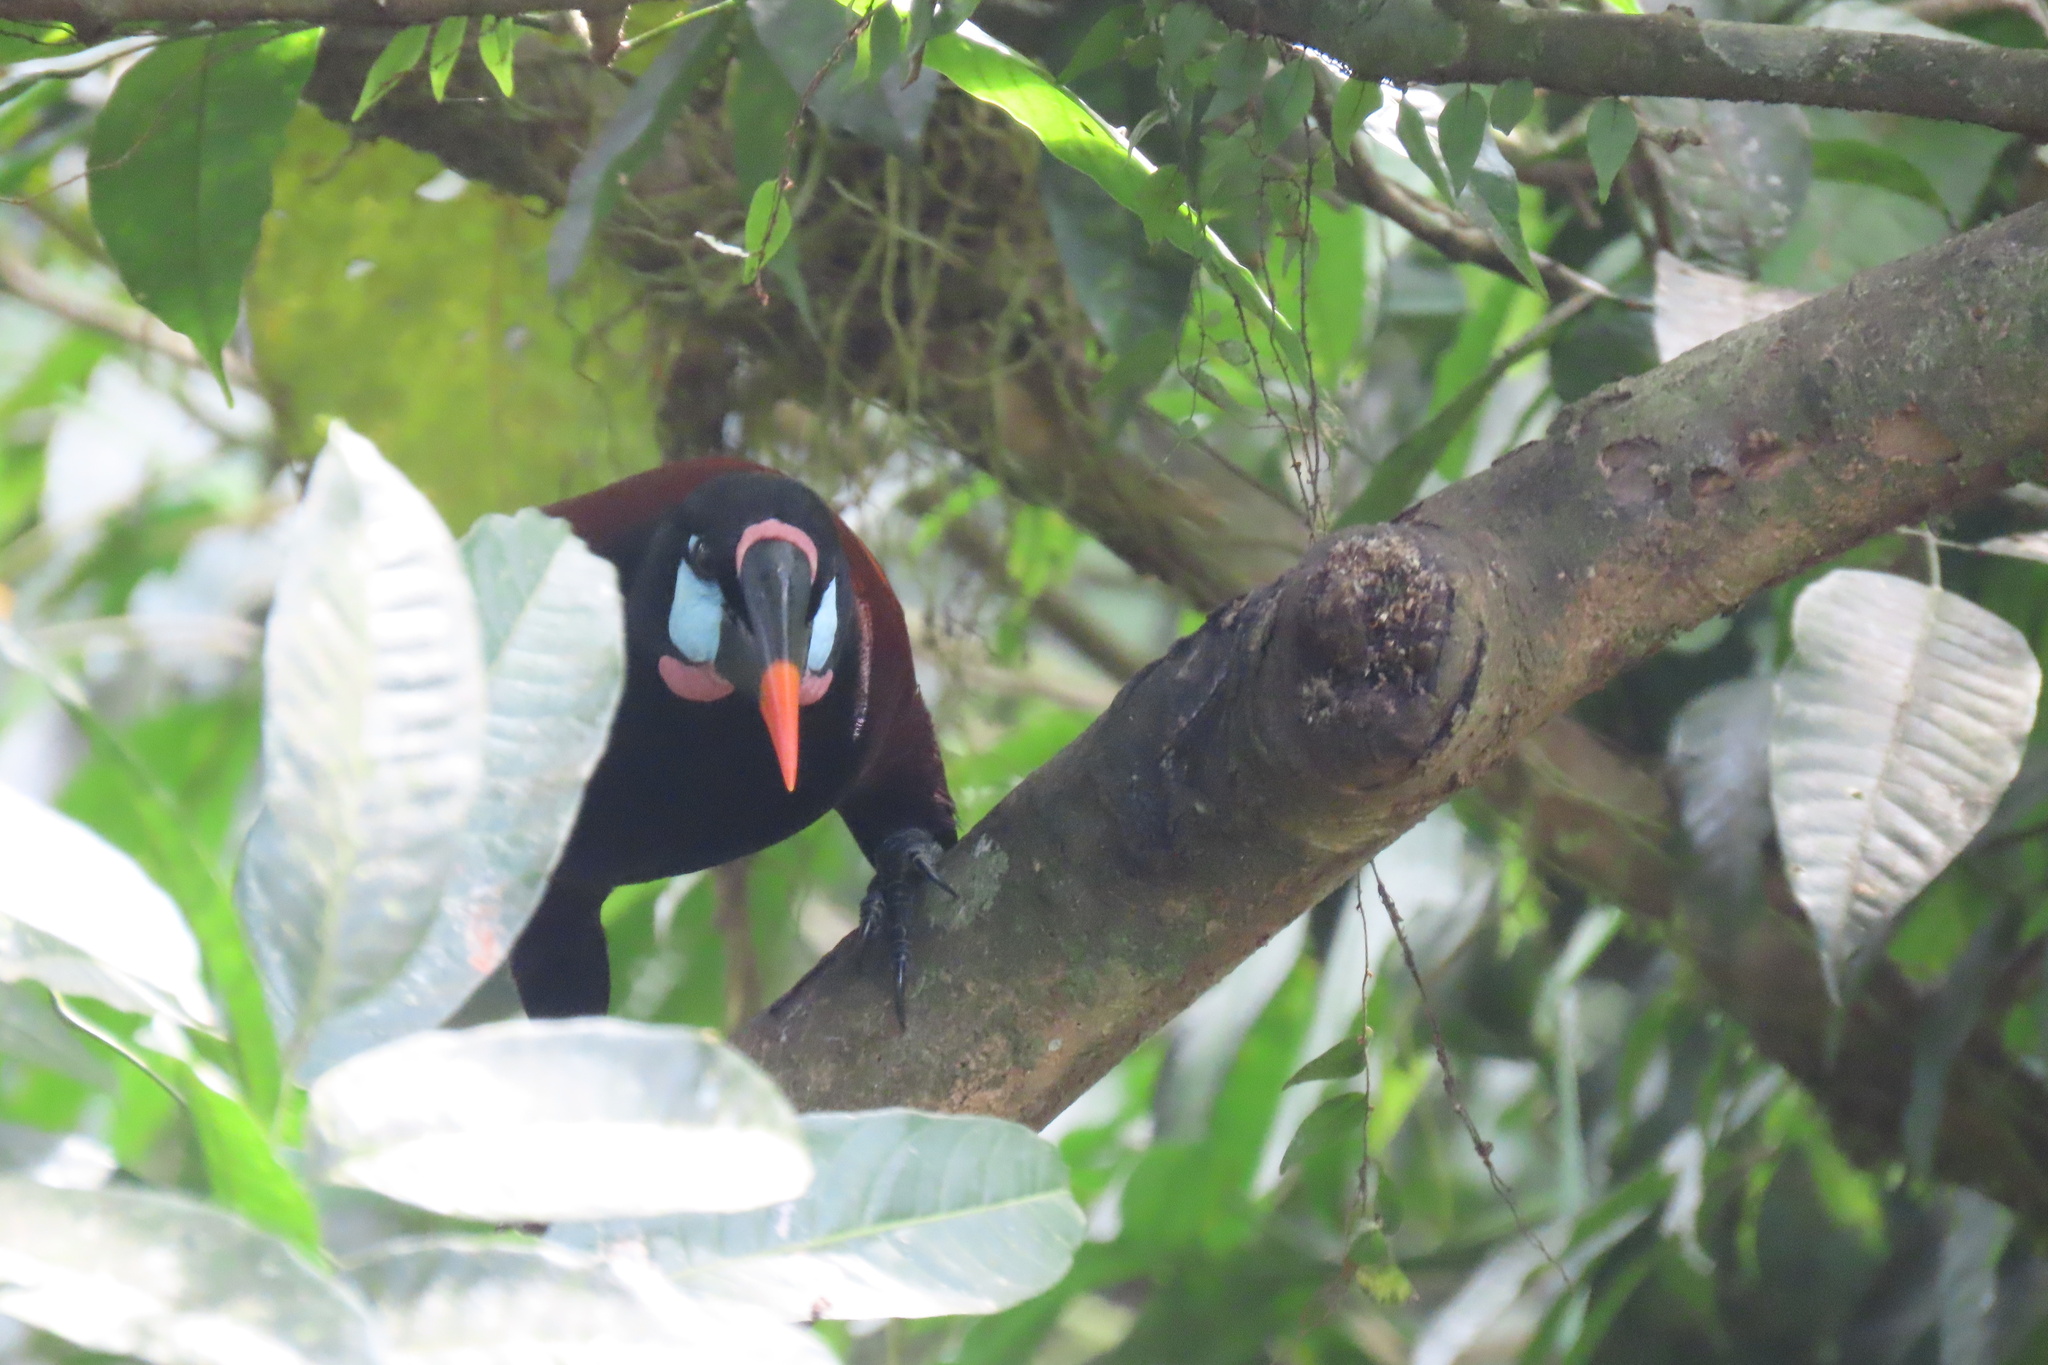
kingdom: Animalia
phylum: Chordata
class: Aves
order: Passeriformes
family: Icteridae
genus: Psarocolius
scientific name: Psarocolius montezuma
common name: Montezuma oropendola
